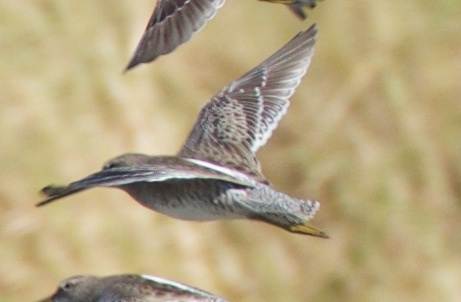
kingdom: Animalia
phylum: Chordata
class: Aves
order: Charadriiformes
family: Scolopacidae
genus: Limnodromus
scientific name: Limnodromus scolopaceus
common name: Long-billed dowitcher
